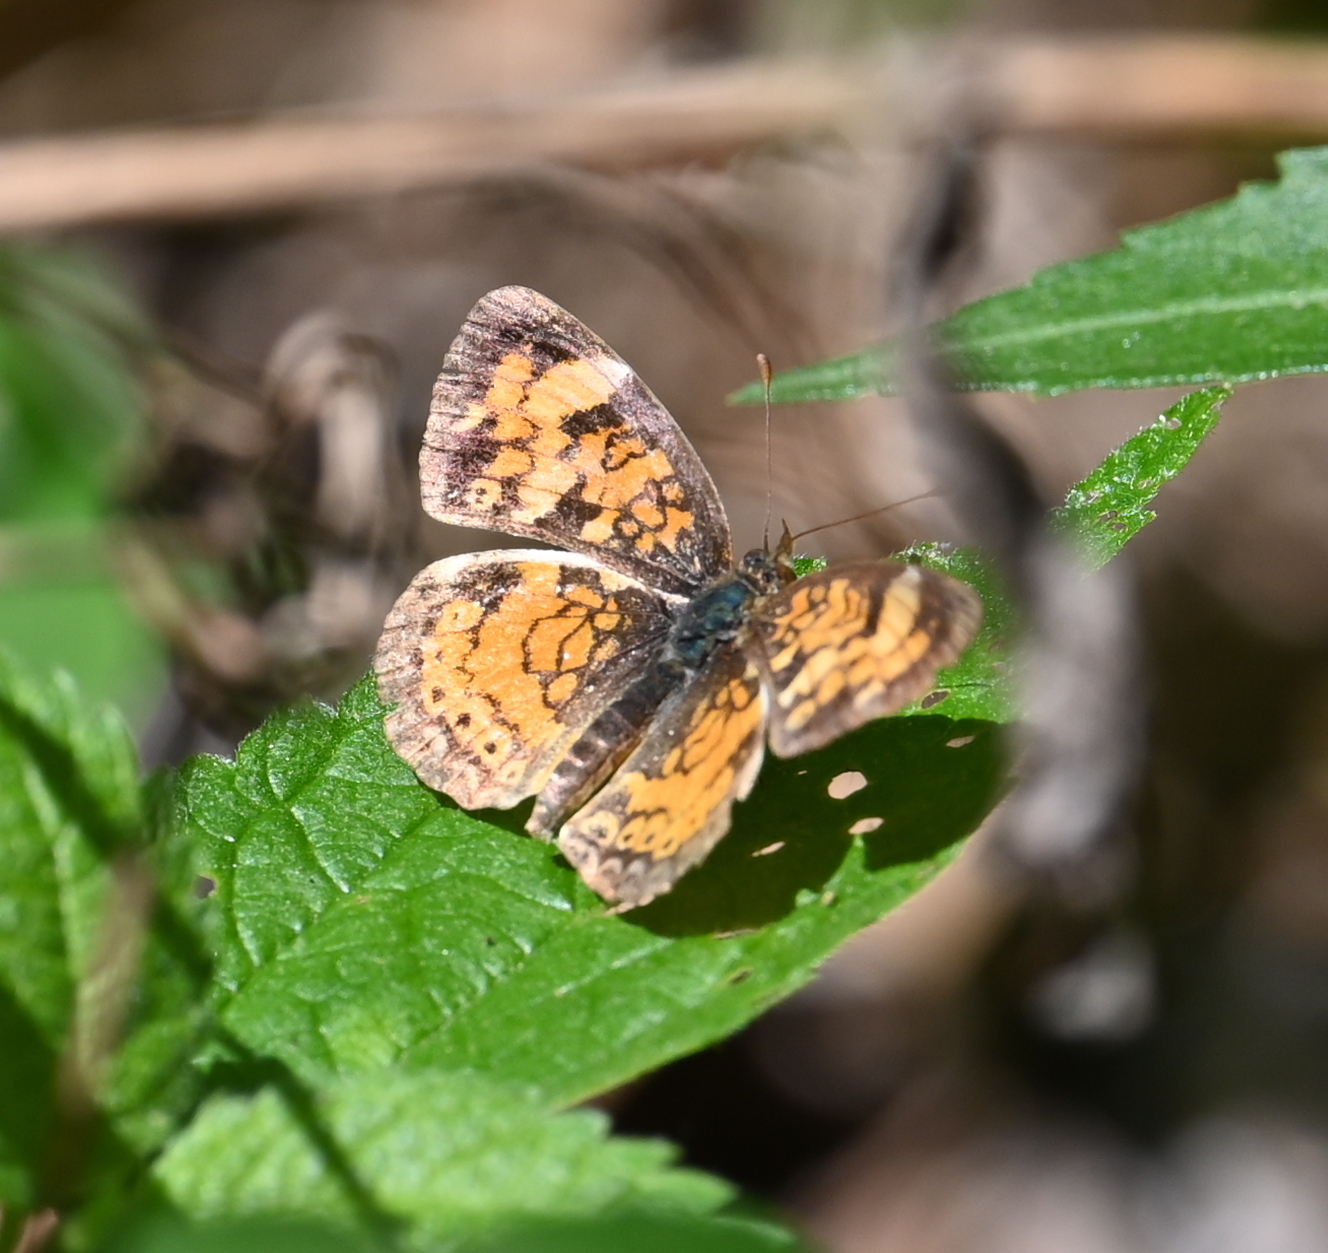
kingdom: Animalia
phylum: Arthropoda
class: Insecta
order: Lepidoptera
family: Nymphalidae
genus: Phyciodes
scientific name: Phyciodes tharos
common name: Pearl crescent
